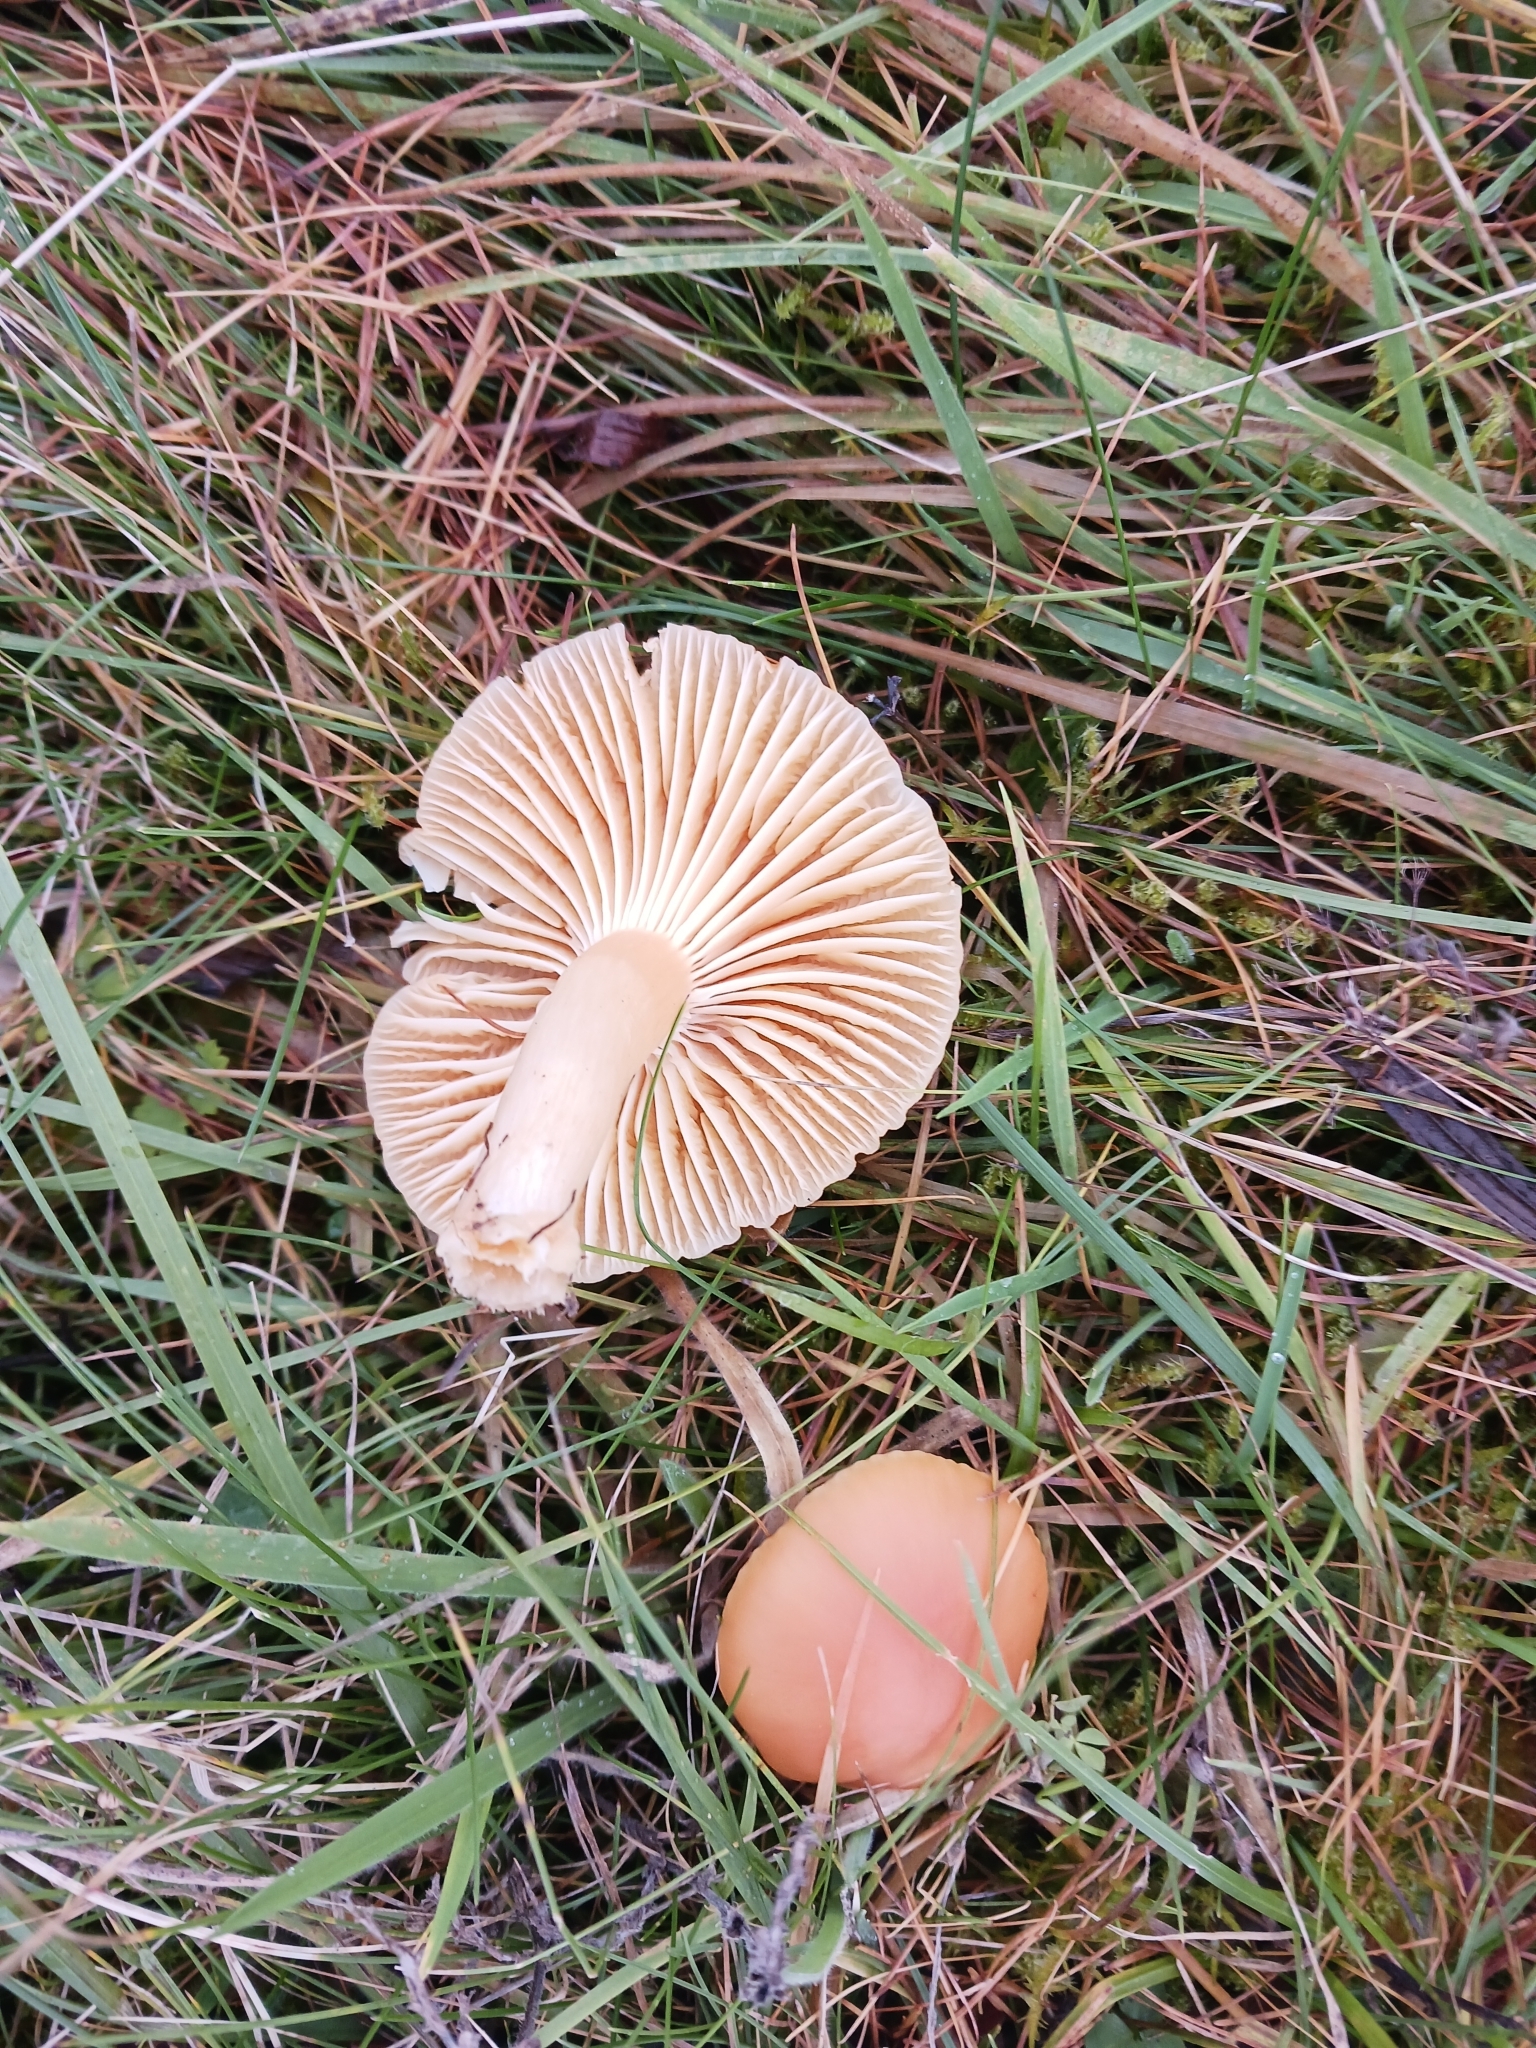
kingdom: Fungi
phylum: Basidiomycota
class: Agaricomycetes
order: Agaricales
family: Hygrophoraceae
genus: Cuphophyllus
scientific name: Cuphophyllus pratensis
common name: Meadow waxcap
